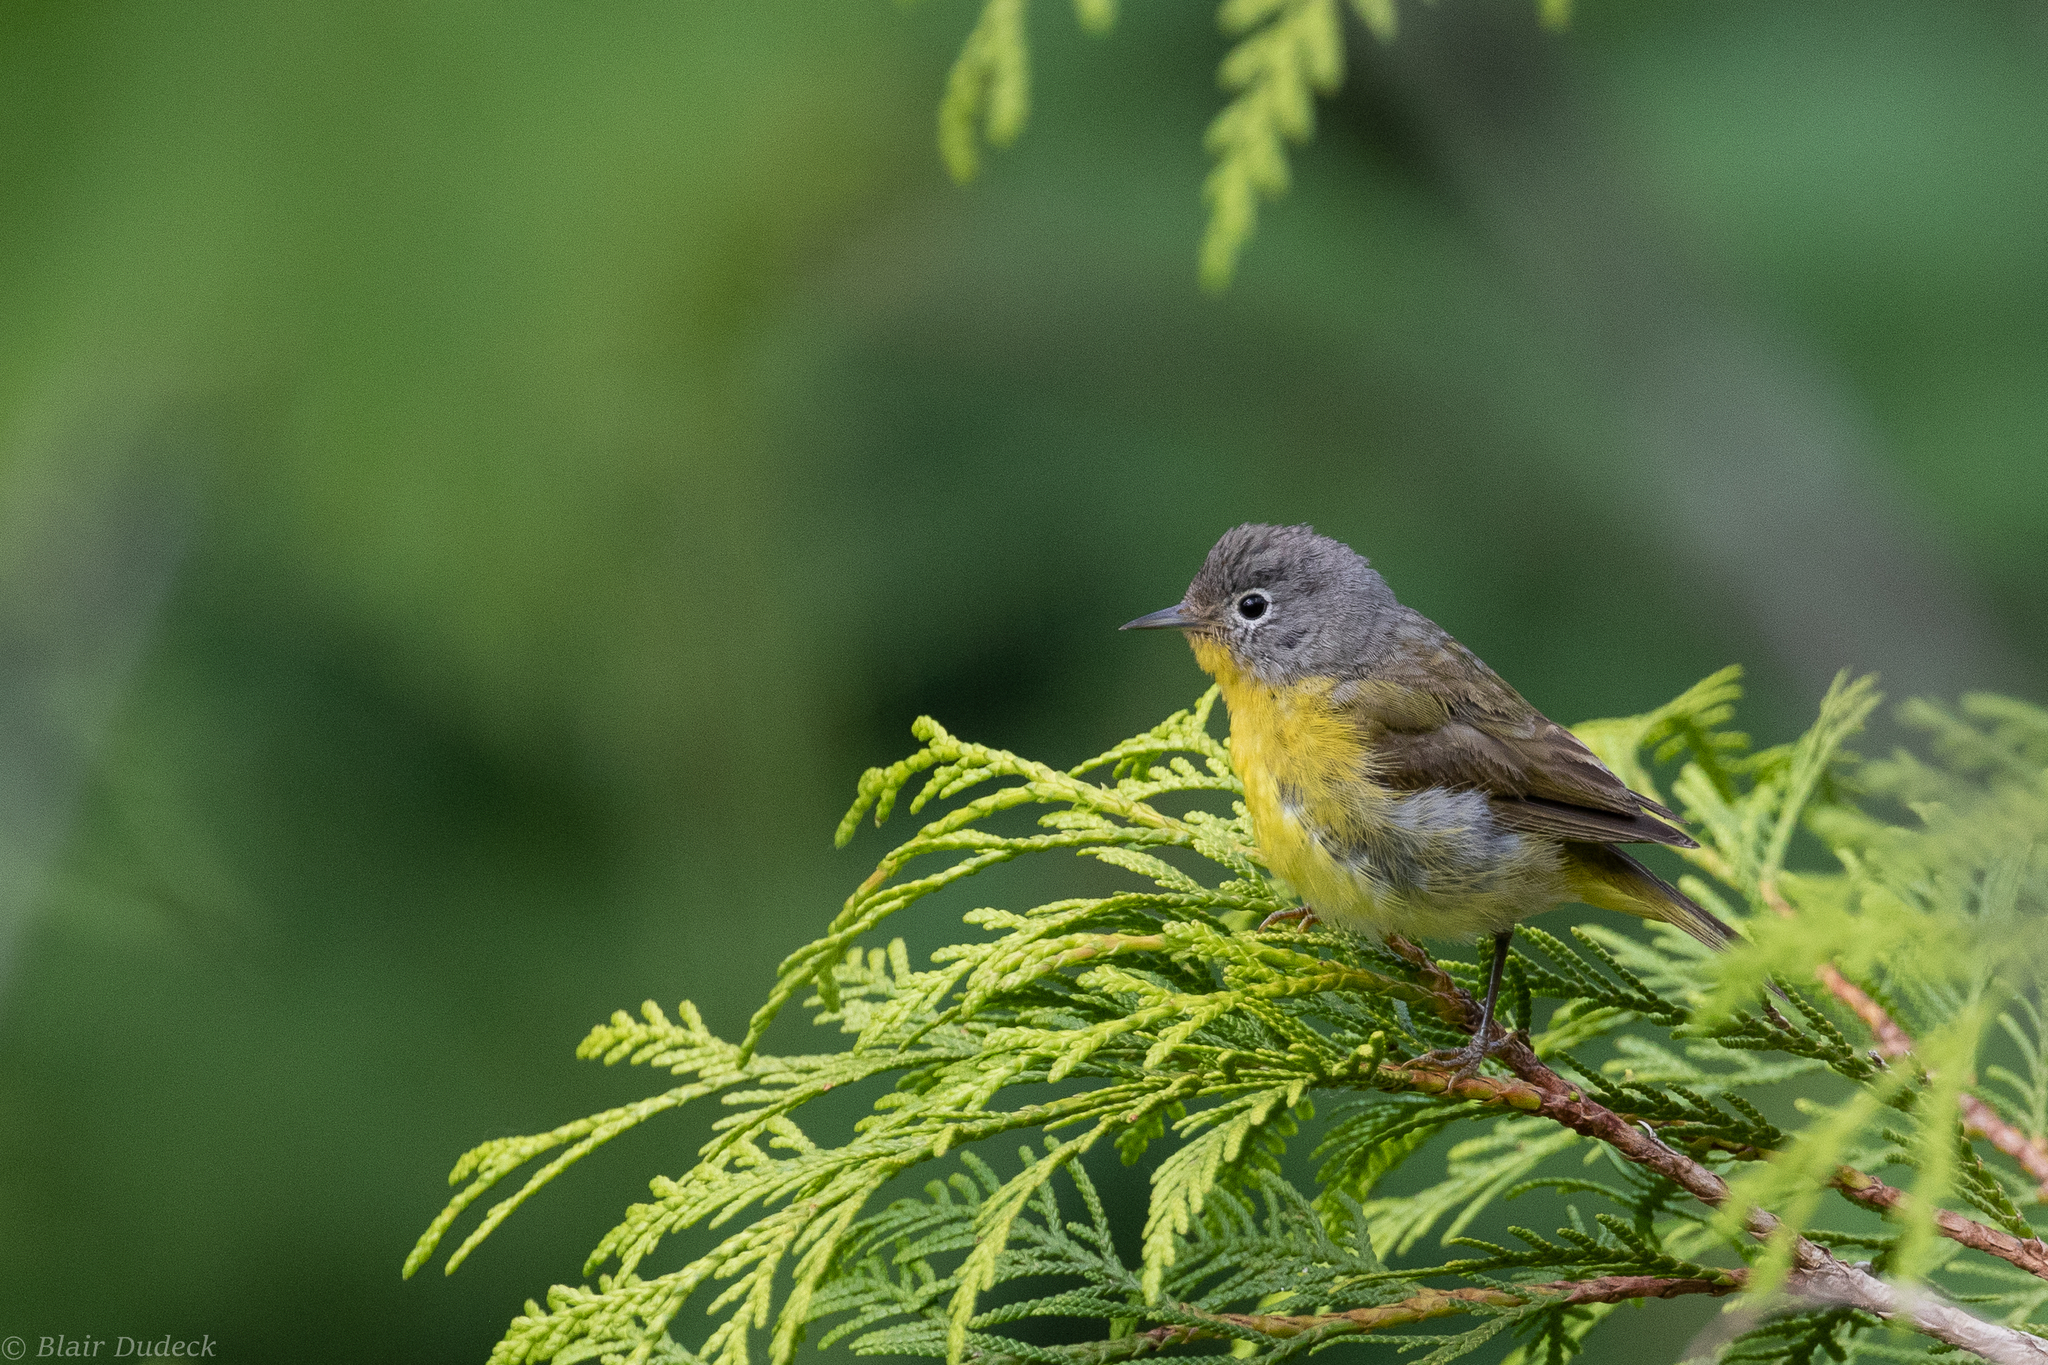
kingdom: Animalia
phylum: Chordata
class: Aves
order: Passeriformes
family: Parulidae
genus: Leiothlypis
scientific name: Leiothlypis ruficapilla
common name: Nashville warbler
